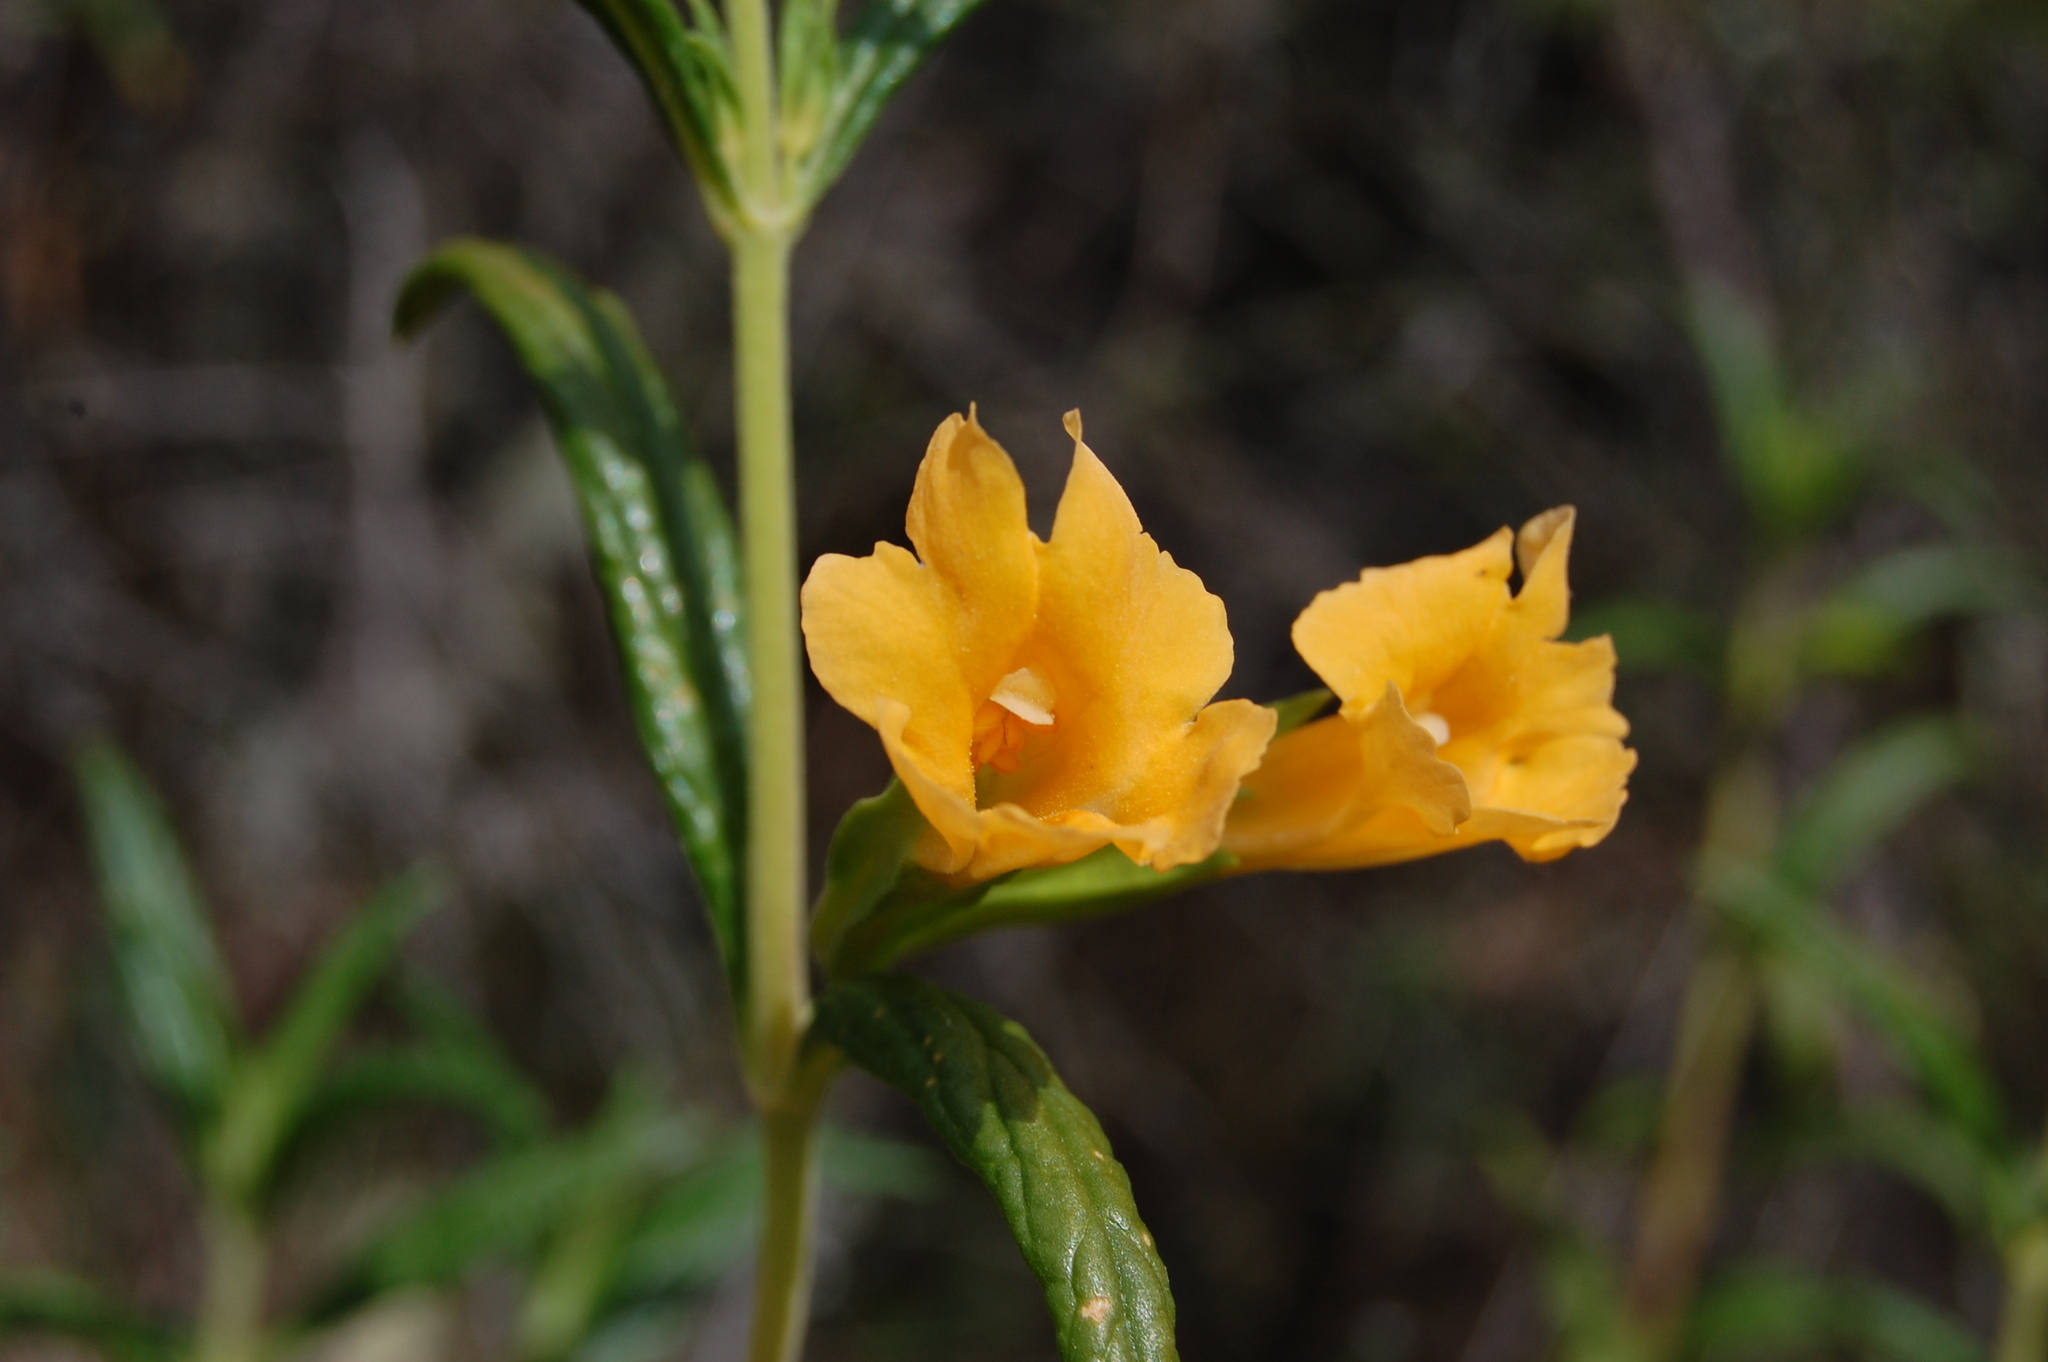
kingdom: Plantae
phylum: Tracheophyta
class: Magnoliopsida
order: Lamiales
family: Phrymaceae
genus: Diplacus
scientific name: Diplacus aurantiacus
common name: Bush monkey-flower
